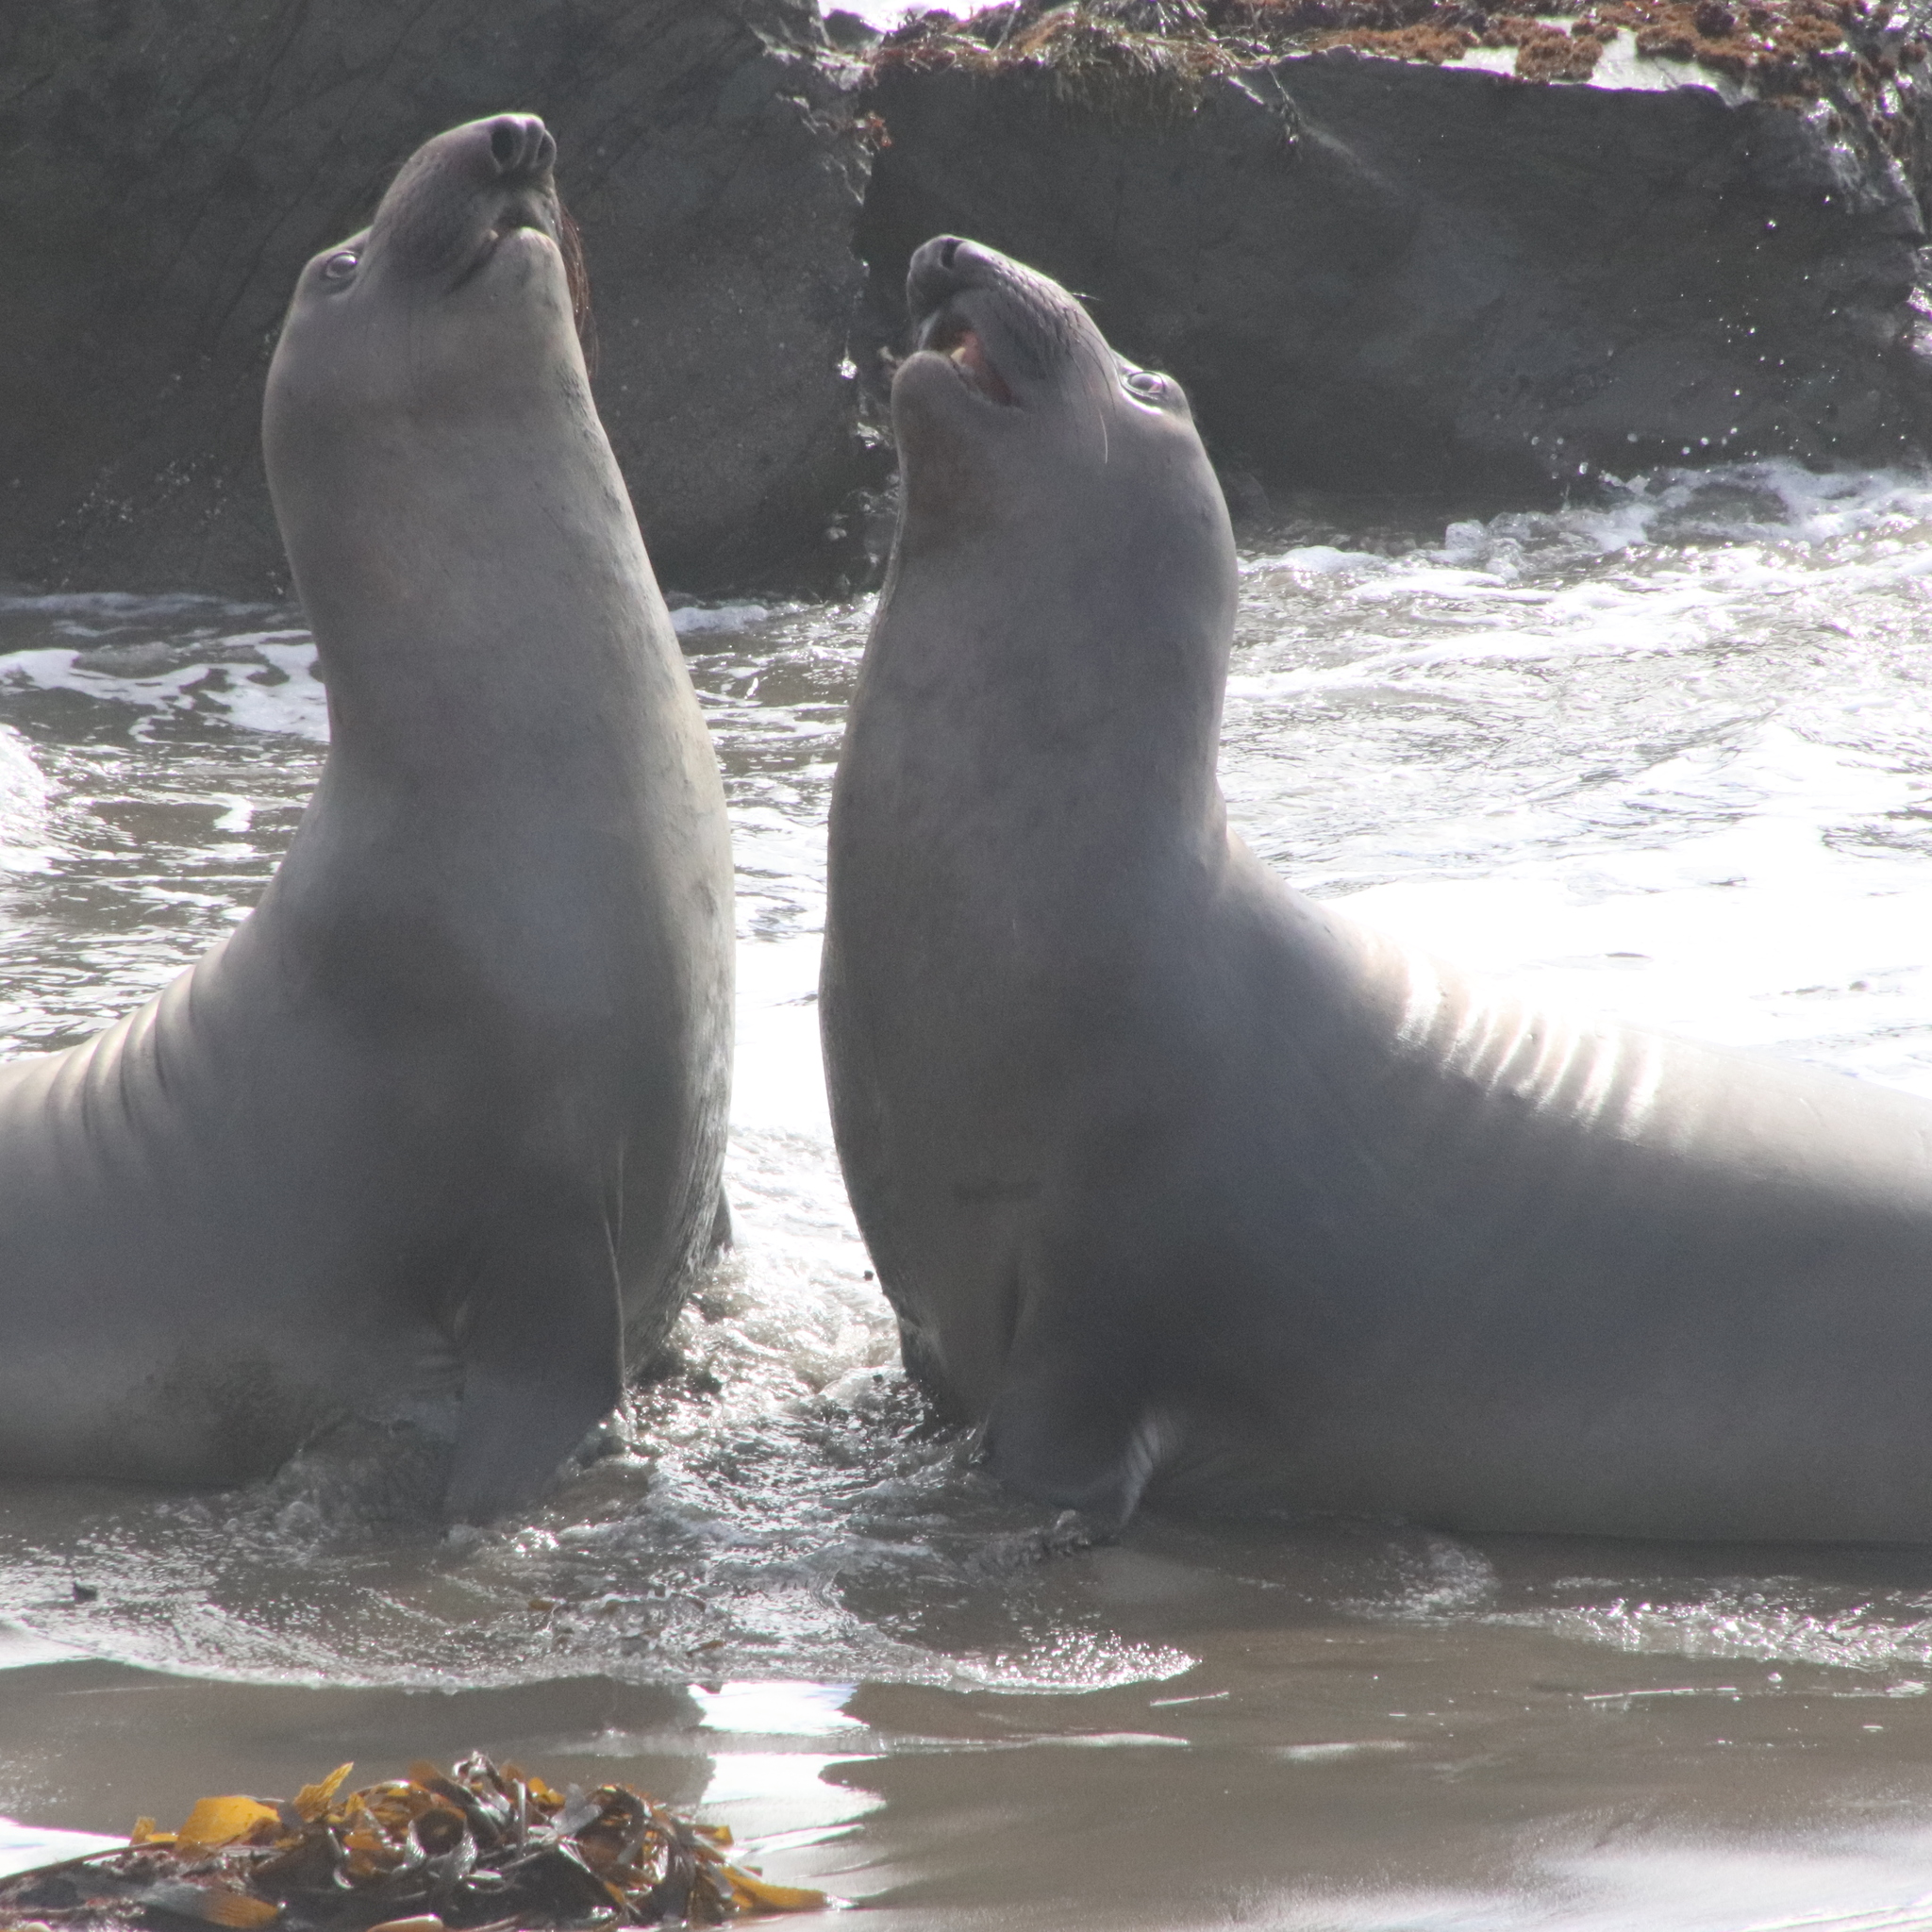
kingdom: Animalia
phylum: Chordata
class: Mammalia
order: Carnivora
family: Phocidae
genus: Mirounga
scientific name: Mirounga angustirostris
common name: Northern elephant seal
